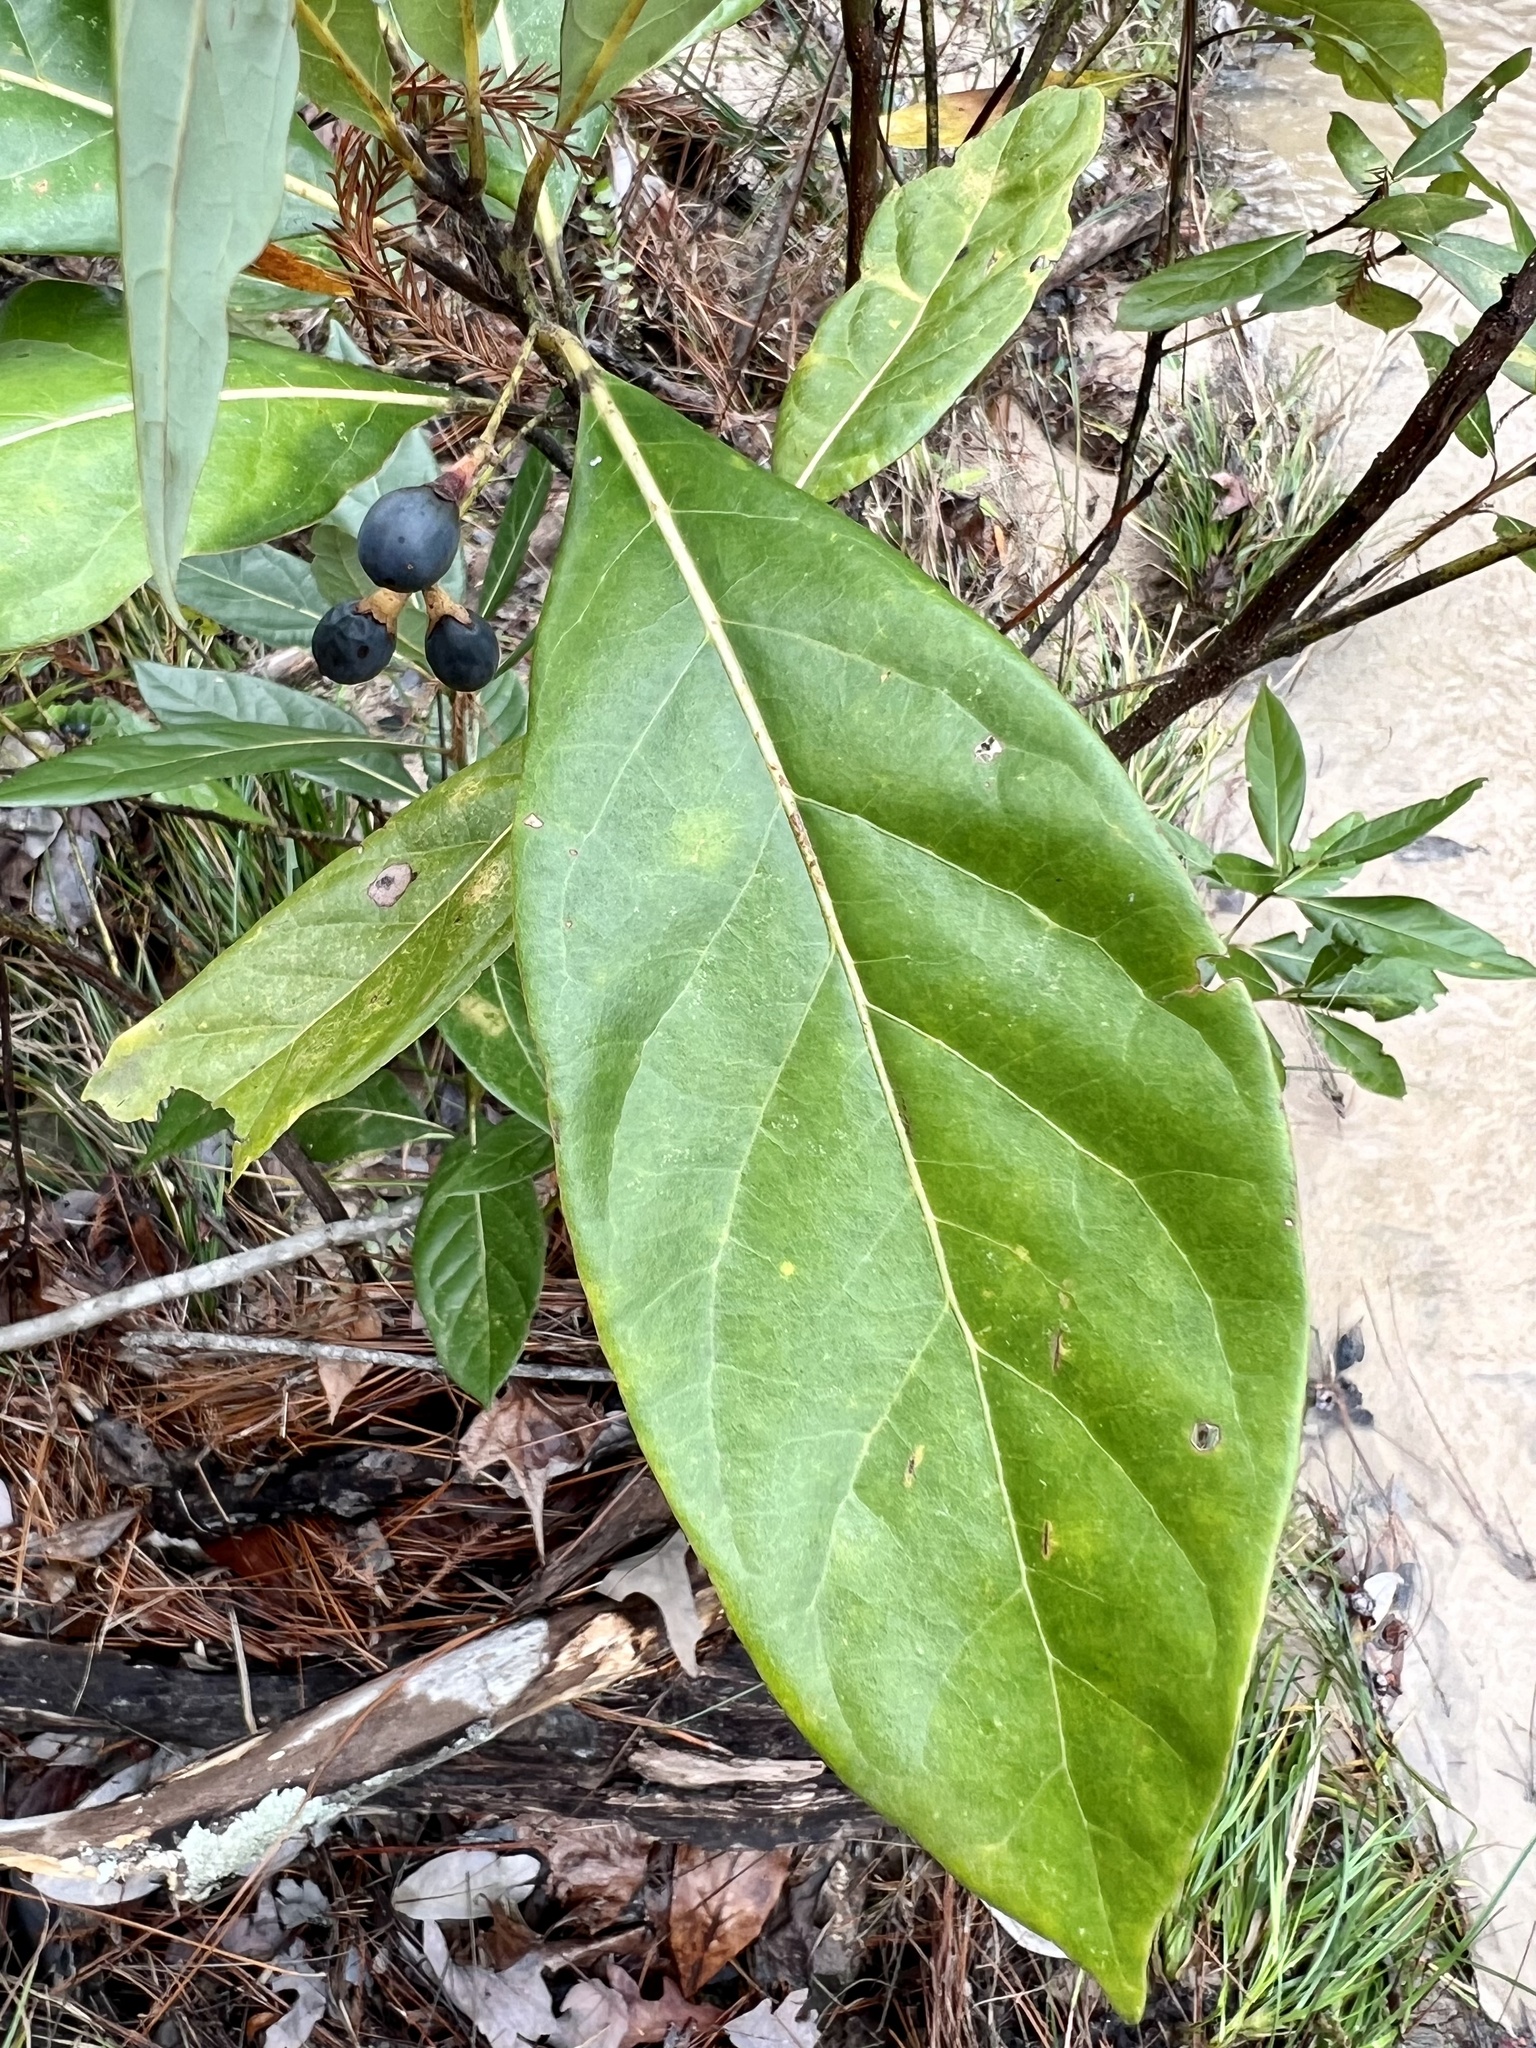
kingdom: Plantae
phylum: Tracheophyta
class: Magnoliopsida
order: Laurales
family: Lauraceae
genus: Persea
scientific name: Persea palustris
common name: Swampbay
